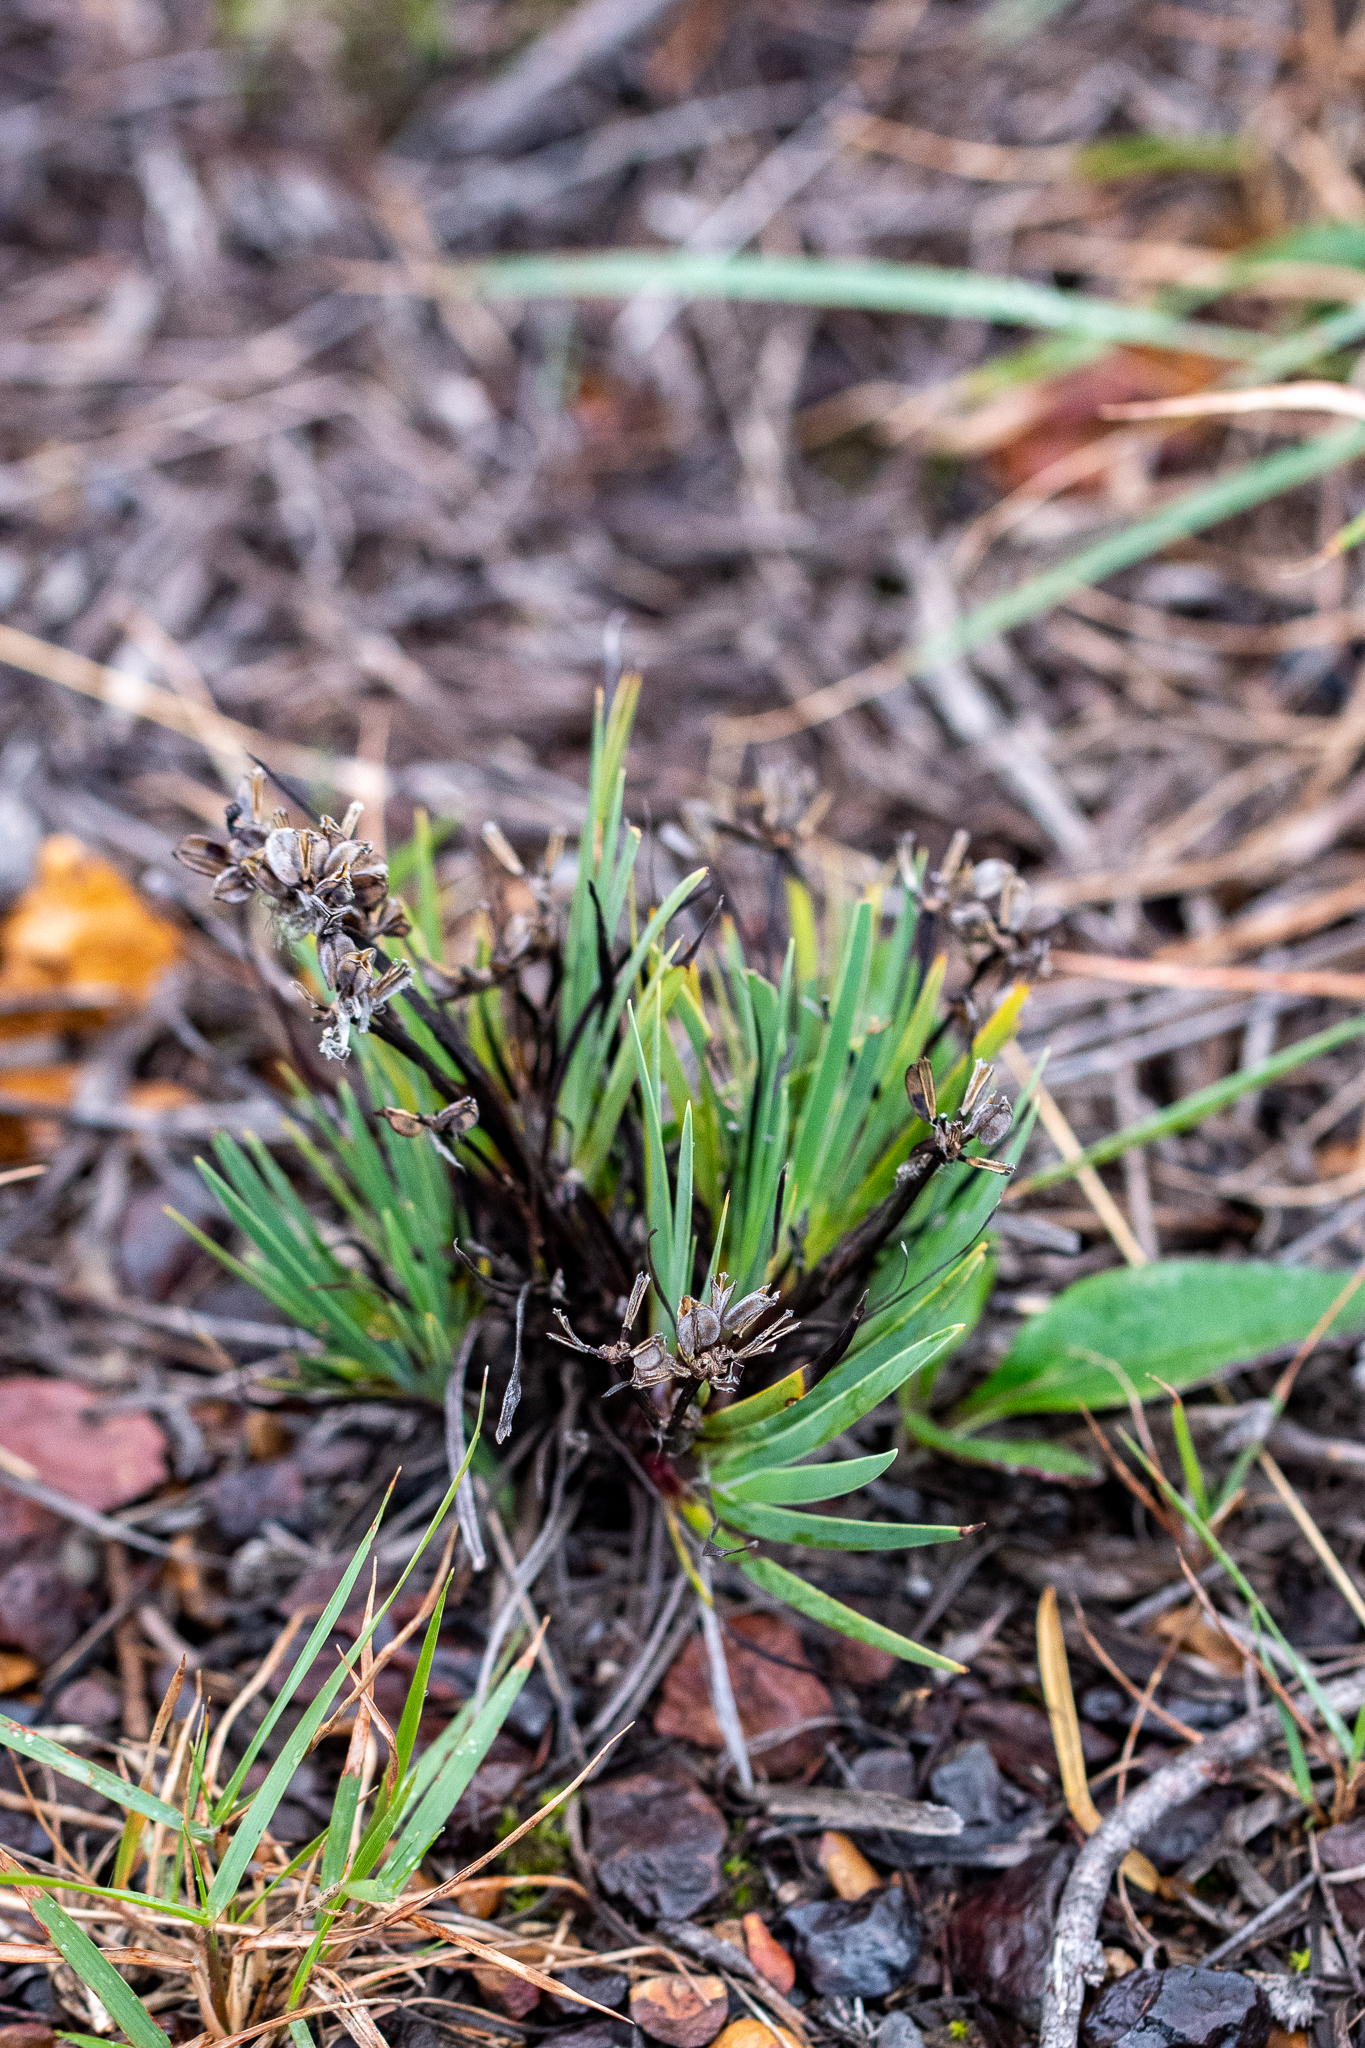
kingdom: Plantae
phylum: Tracheophyta
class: Liliopsida
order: Asparagales
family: Iridaceae
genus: Aristea
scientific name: Aristea africana
